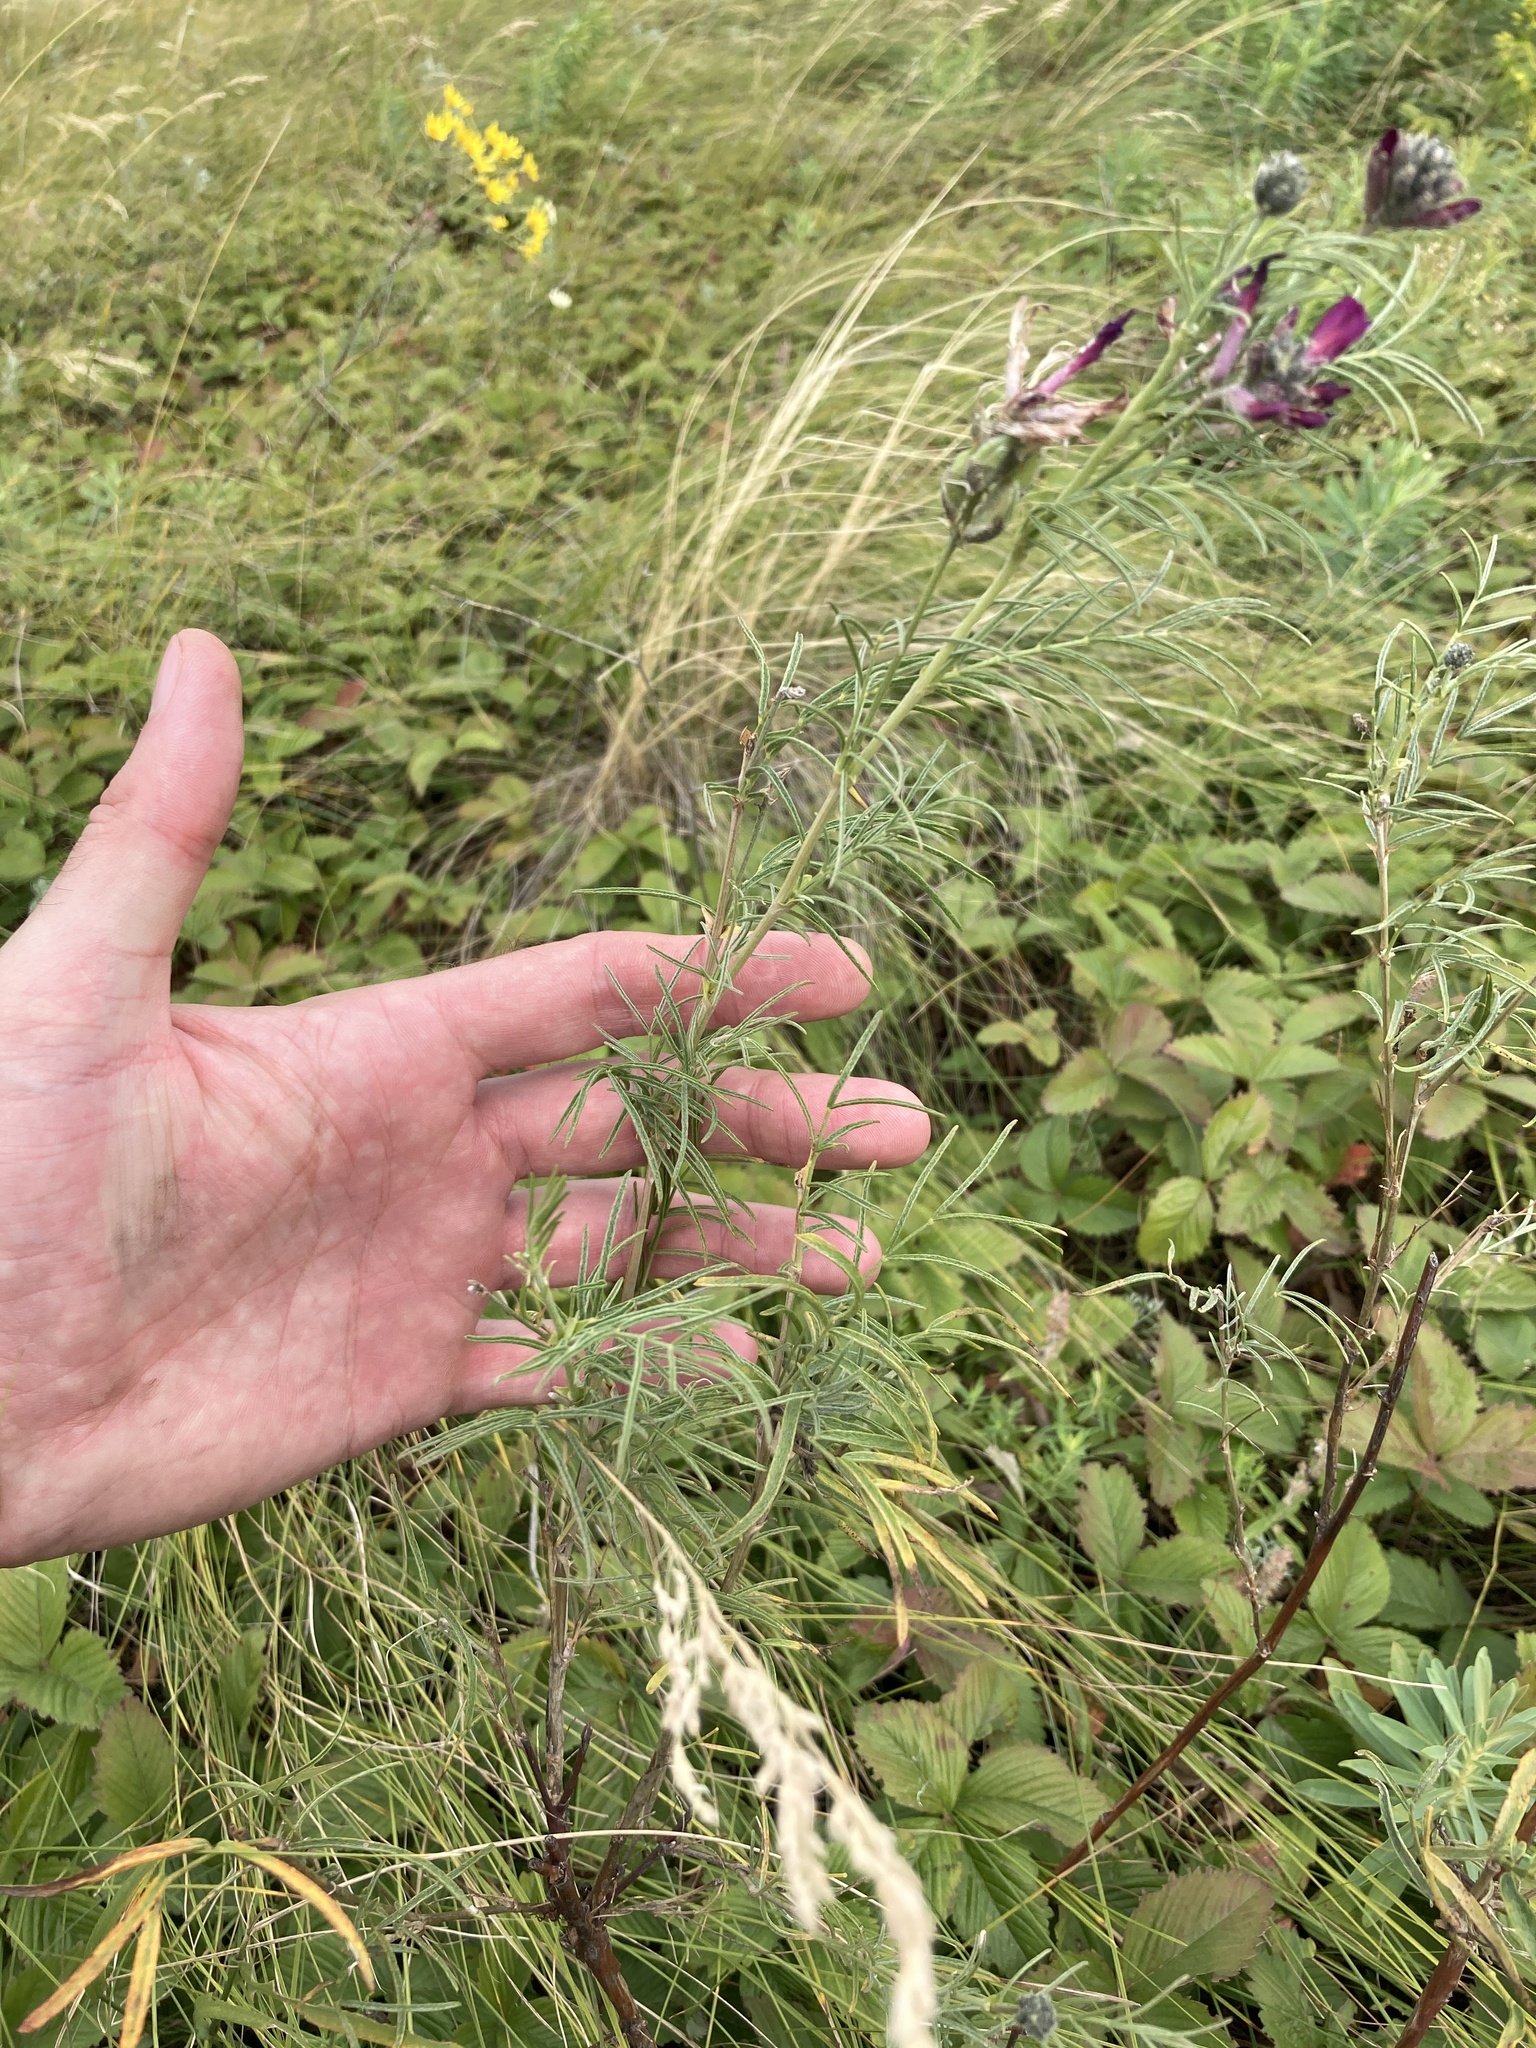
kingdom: Plantae
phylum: Tracheophyta
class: Magnoliopsida
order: Fabales
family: Fabaceae
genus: Astragalus
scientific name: Astragalus cornutus
